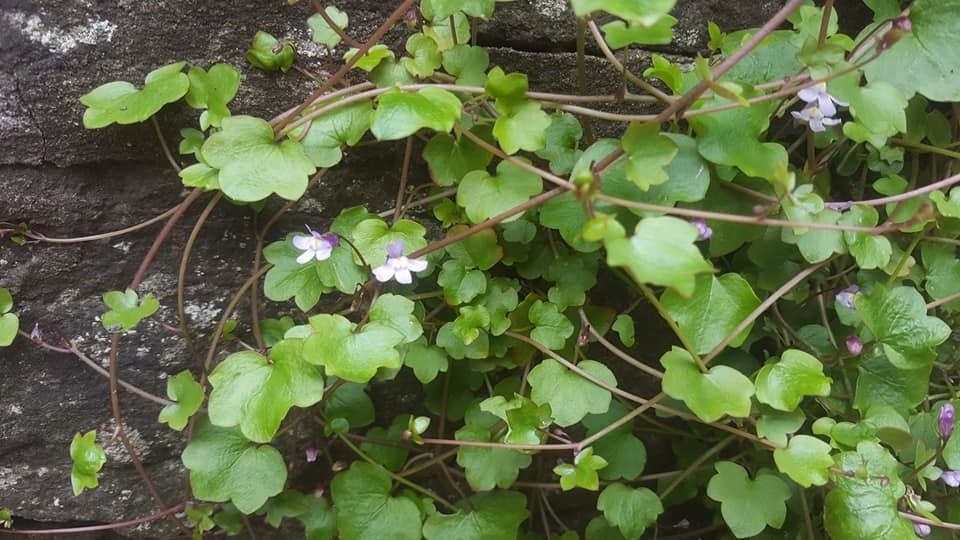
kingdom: Plantae
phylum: Tracheophyta
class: Magnoliopsida
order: Lamiales
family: Plantaginaceae
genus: Cymbalaria
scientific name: Cymbalaria muralis
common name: Ivy-leaved toadflax
